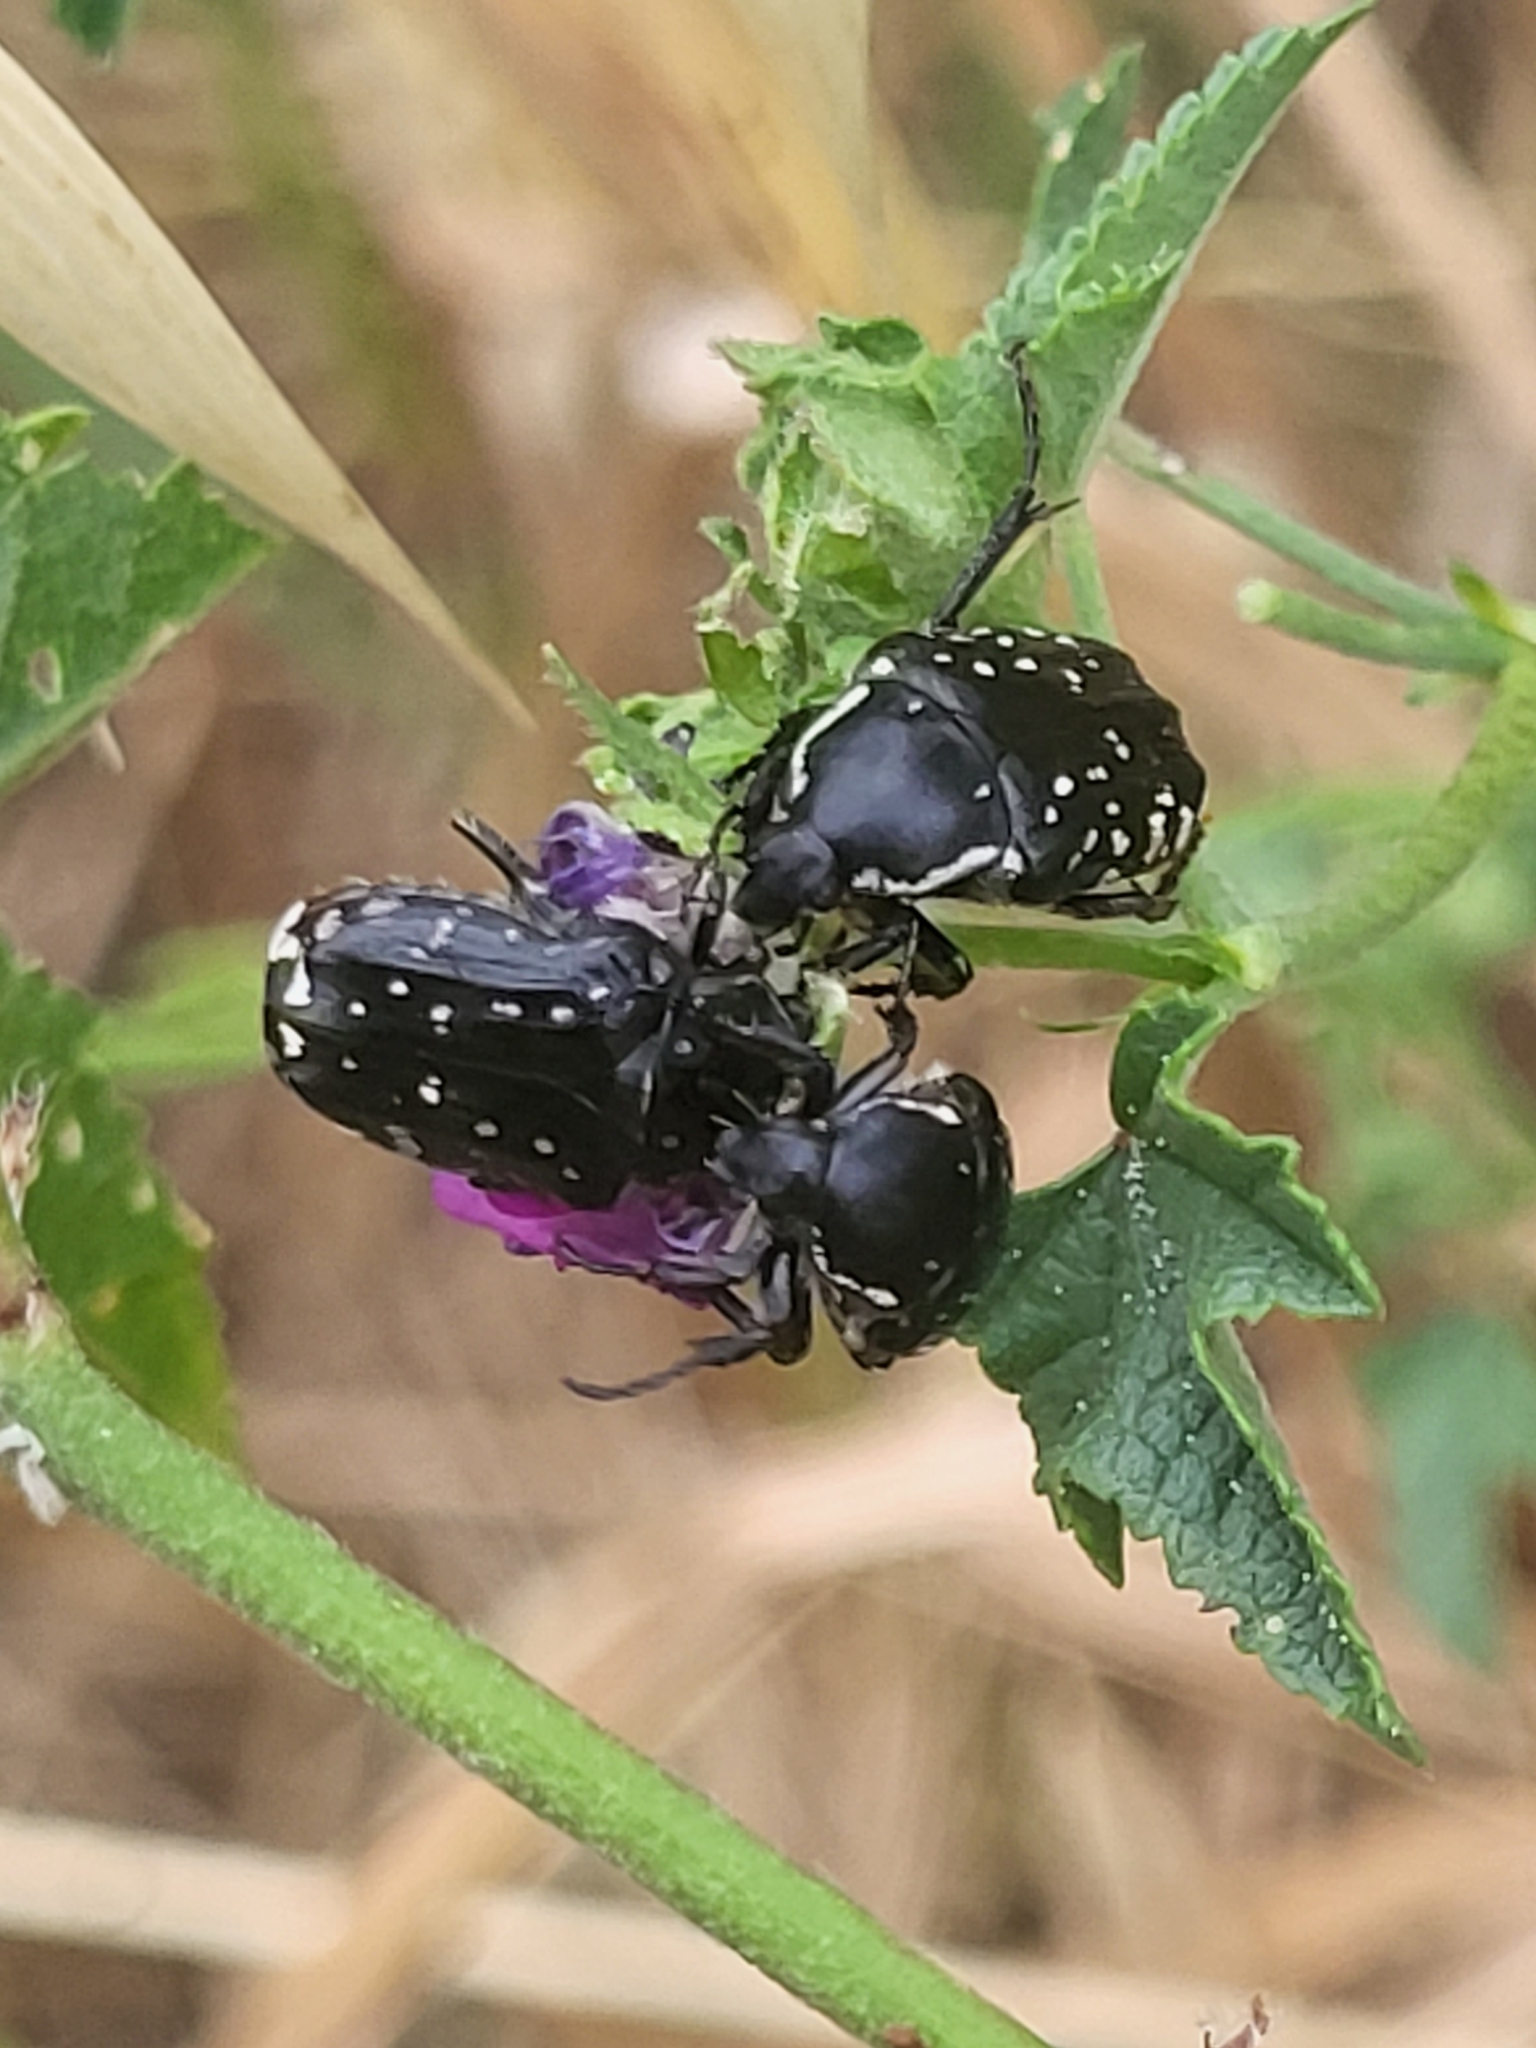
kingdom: Animalia
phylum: Arthropoda
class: Insecta
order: Coleoptera
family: Scarabaeidae
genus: Oxythyrea
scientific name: Oxythyrea cinctella
